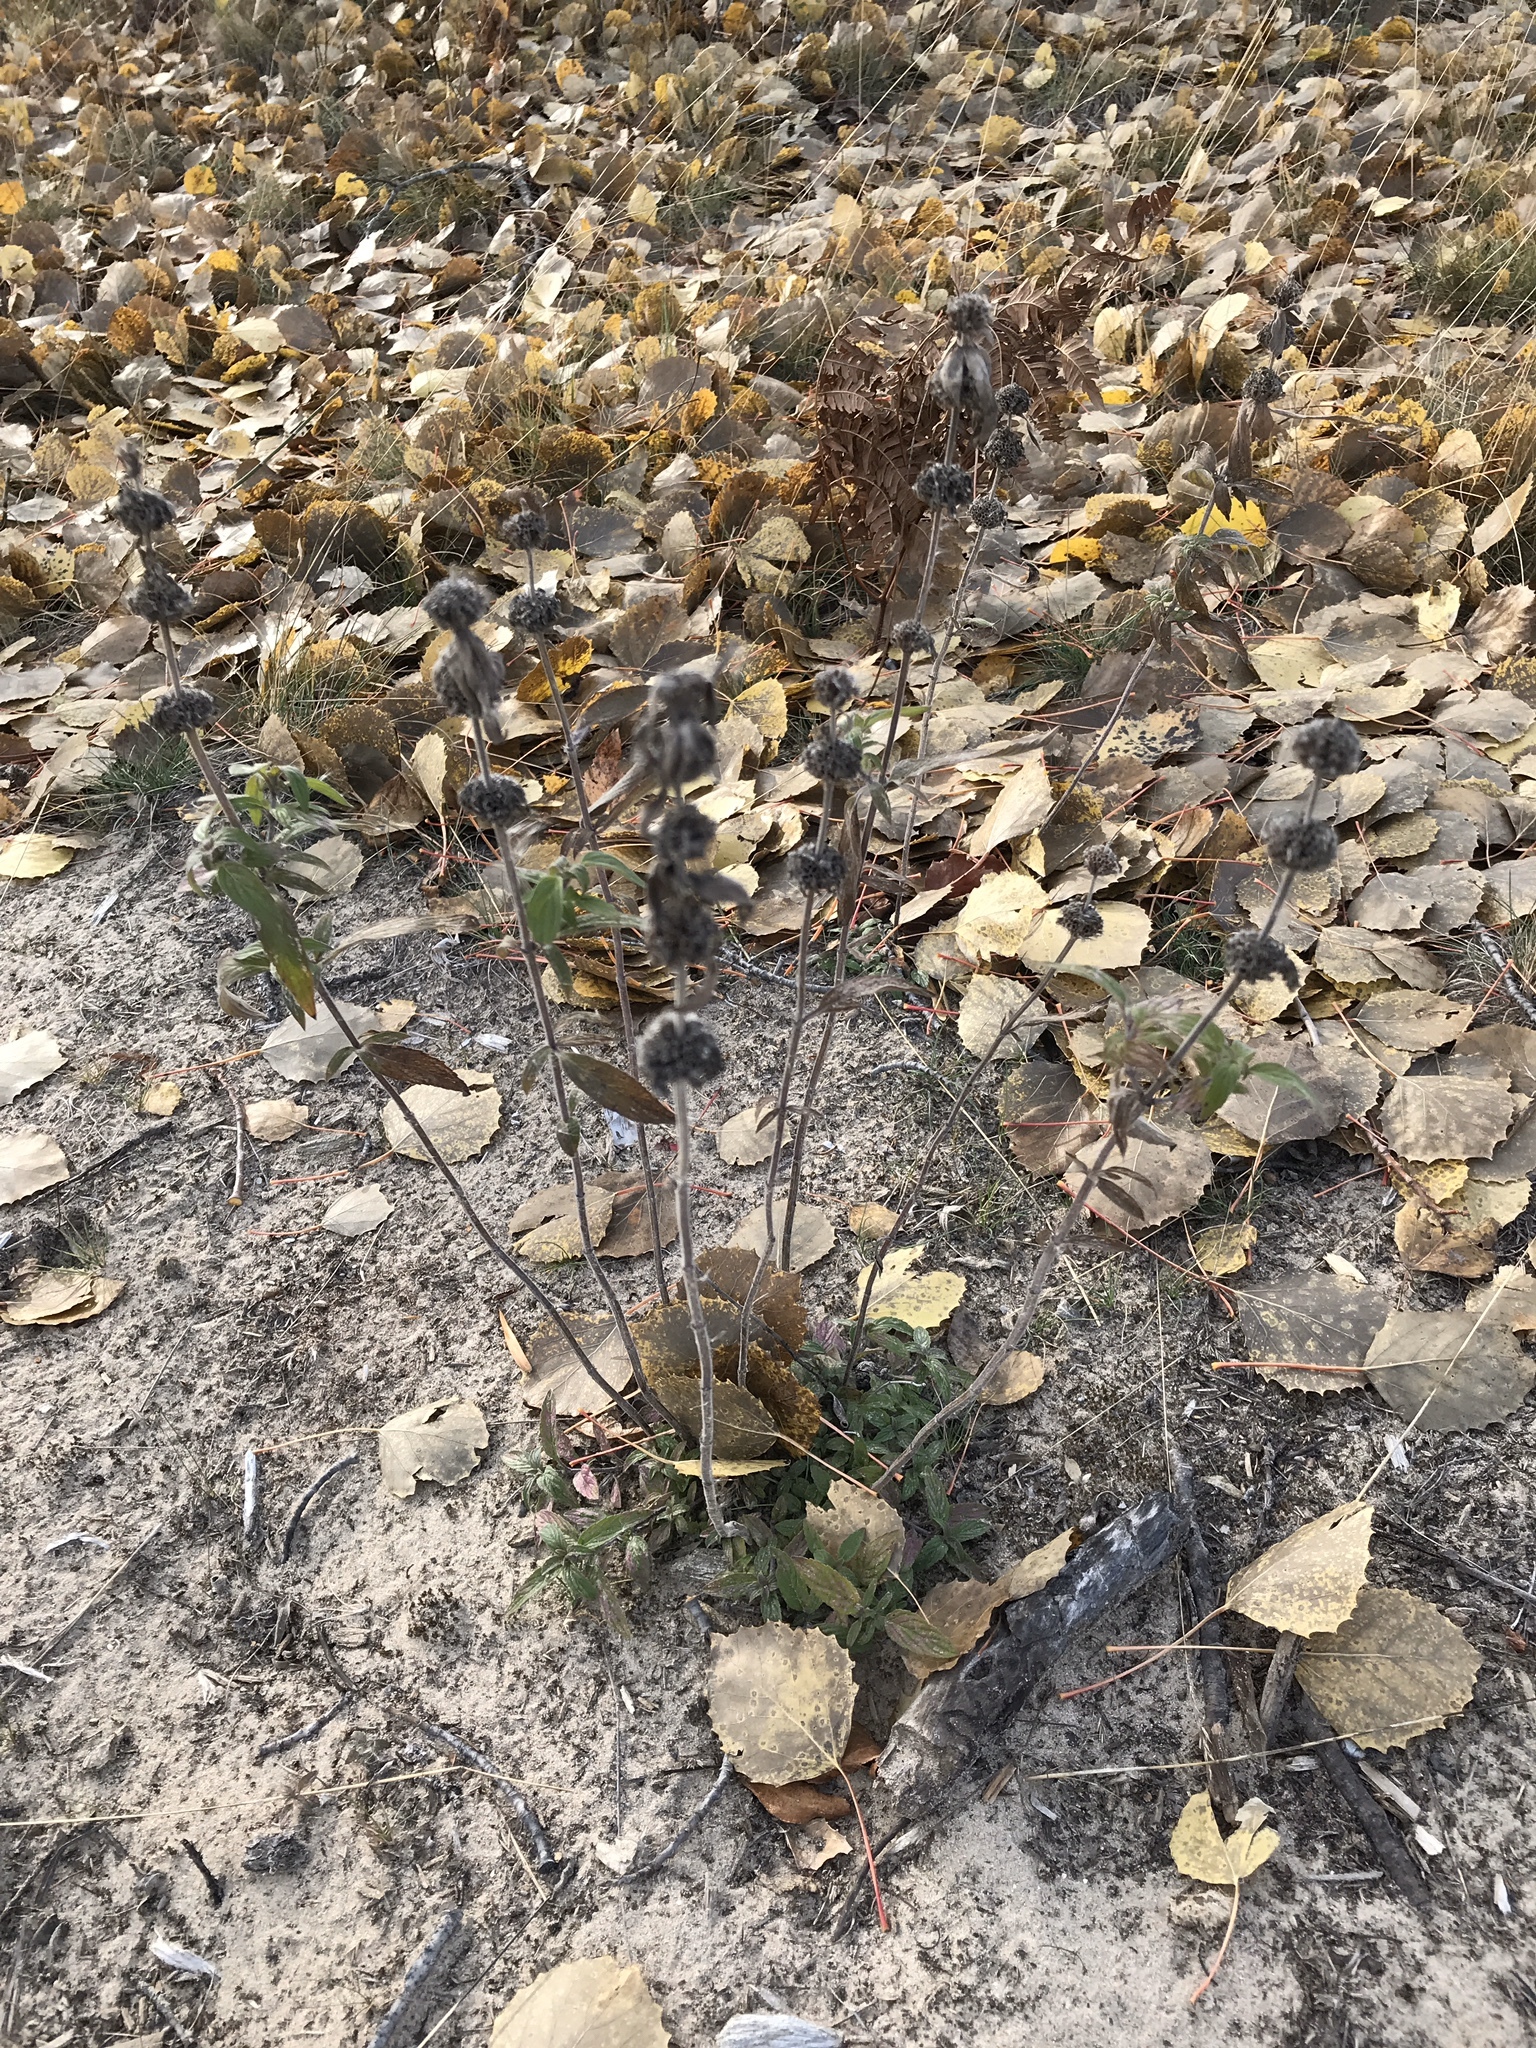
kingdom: Plantae
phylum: Tracheophyta
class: Magnoliopsida
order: Lamiales
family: Lamiaceae
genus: Monarda
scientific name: Monarda punctata
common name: Dotted monarda
